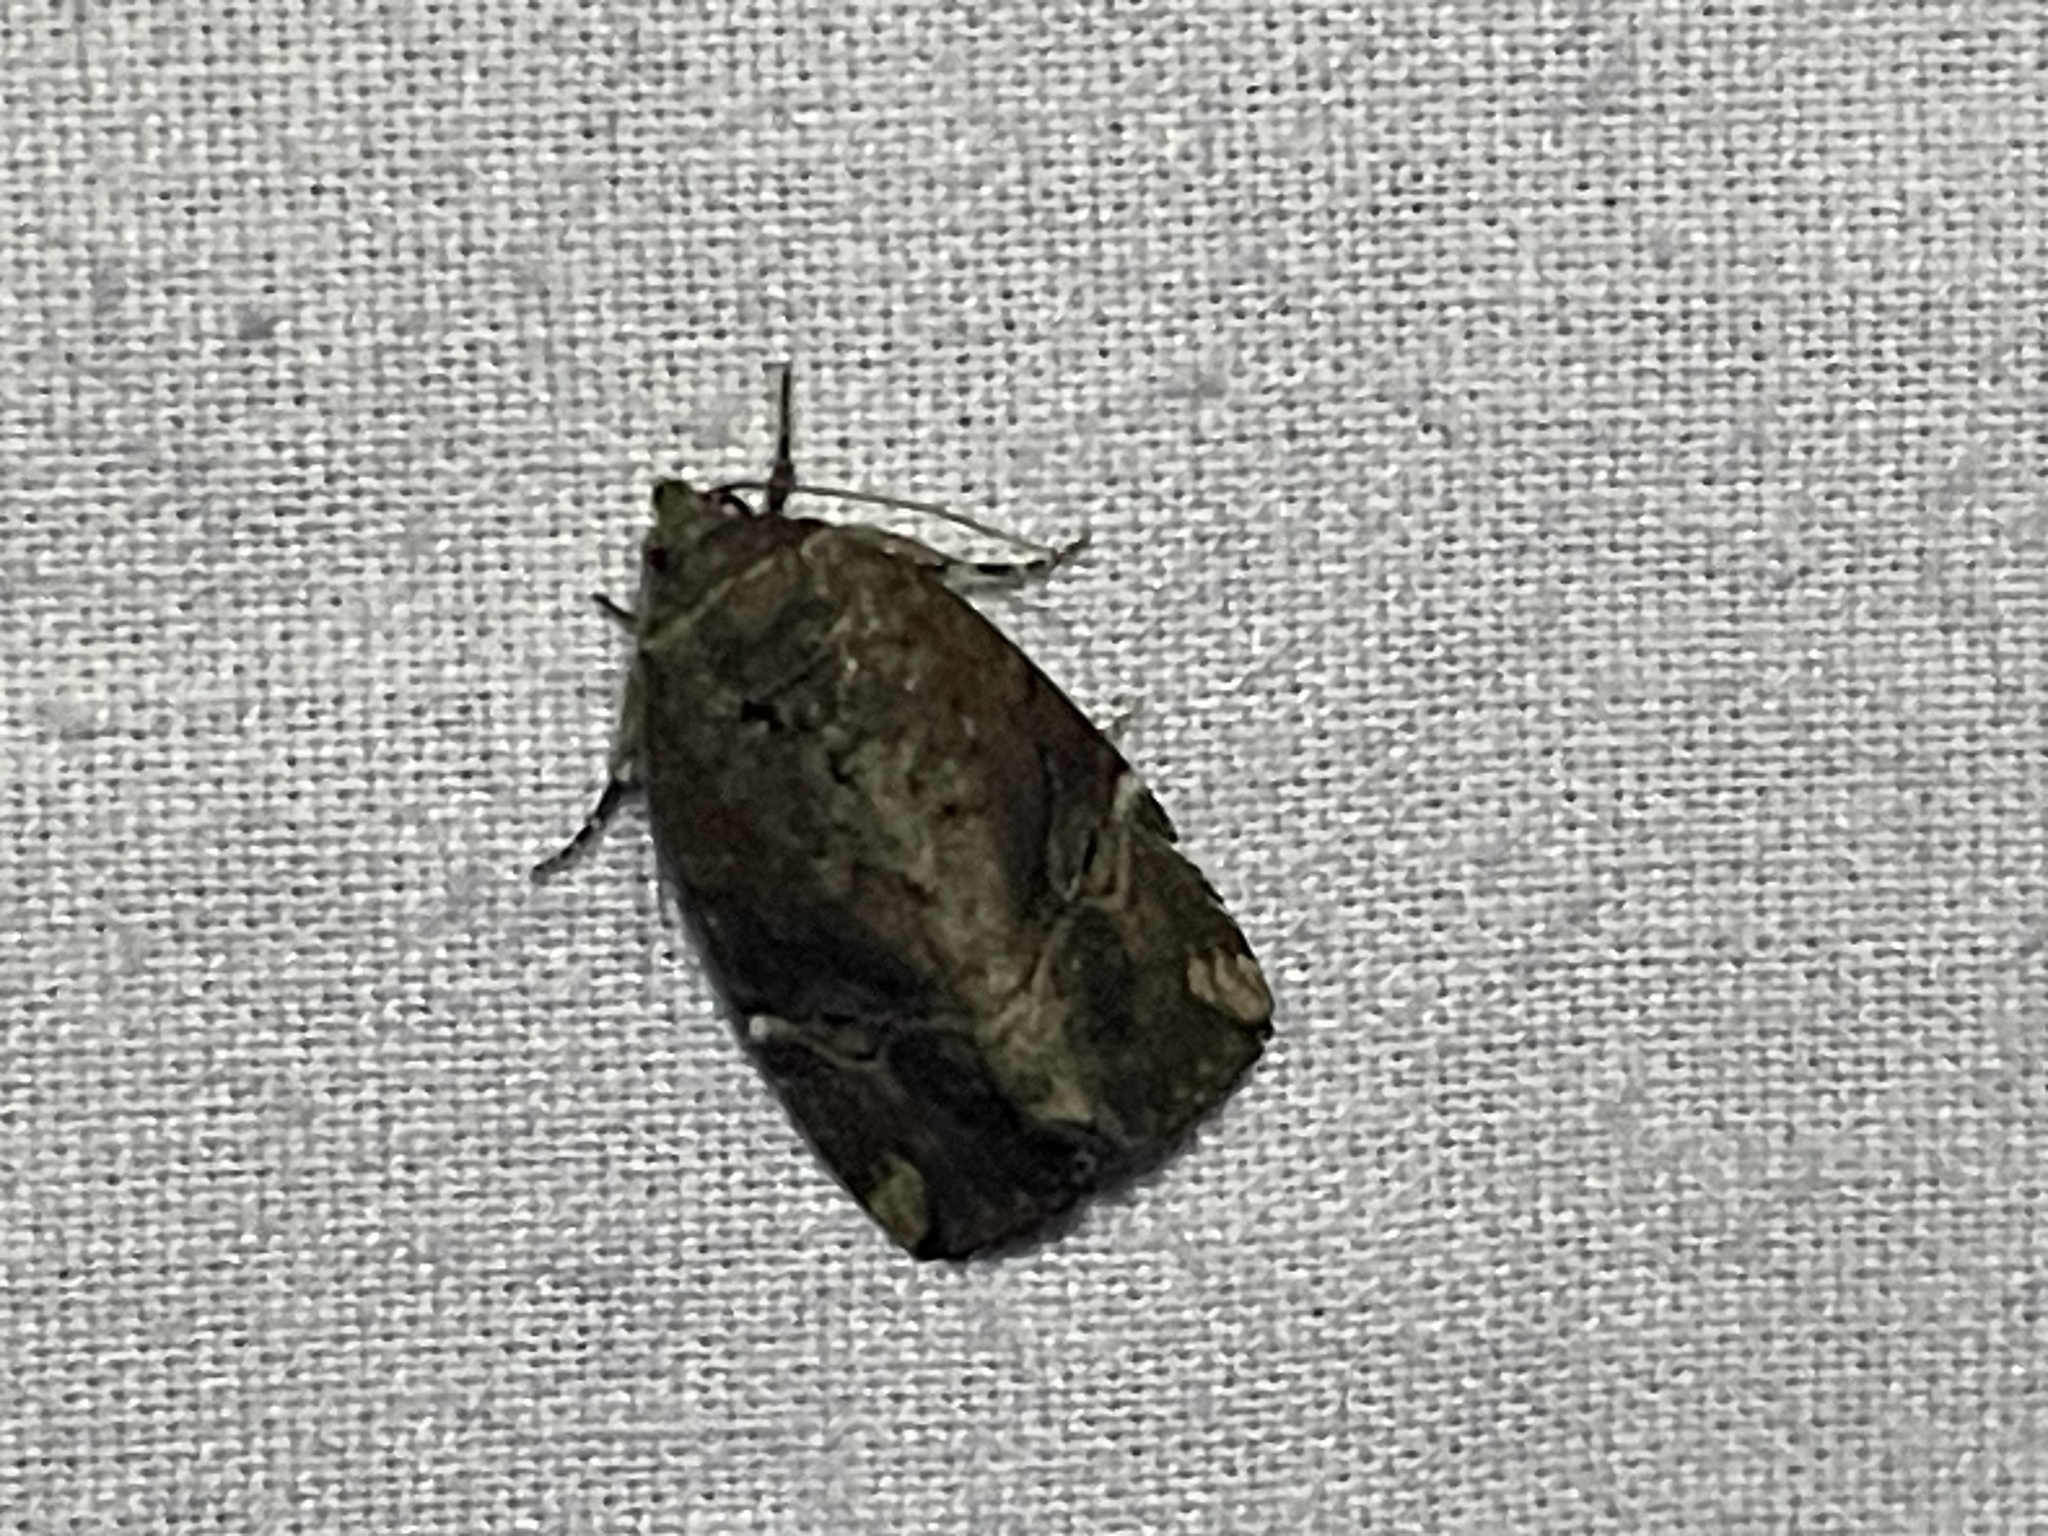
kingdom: Animalia
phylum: Arthropoda
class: Insecta
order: Lepidoptera
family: Noctuidae
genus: Elaphria
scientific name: Elaphria versicolor
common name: Fir harlequin
